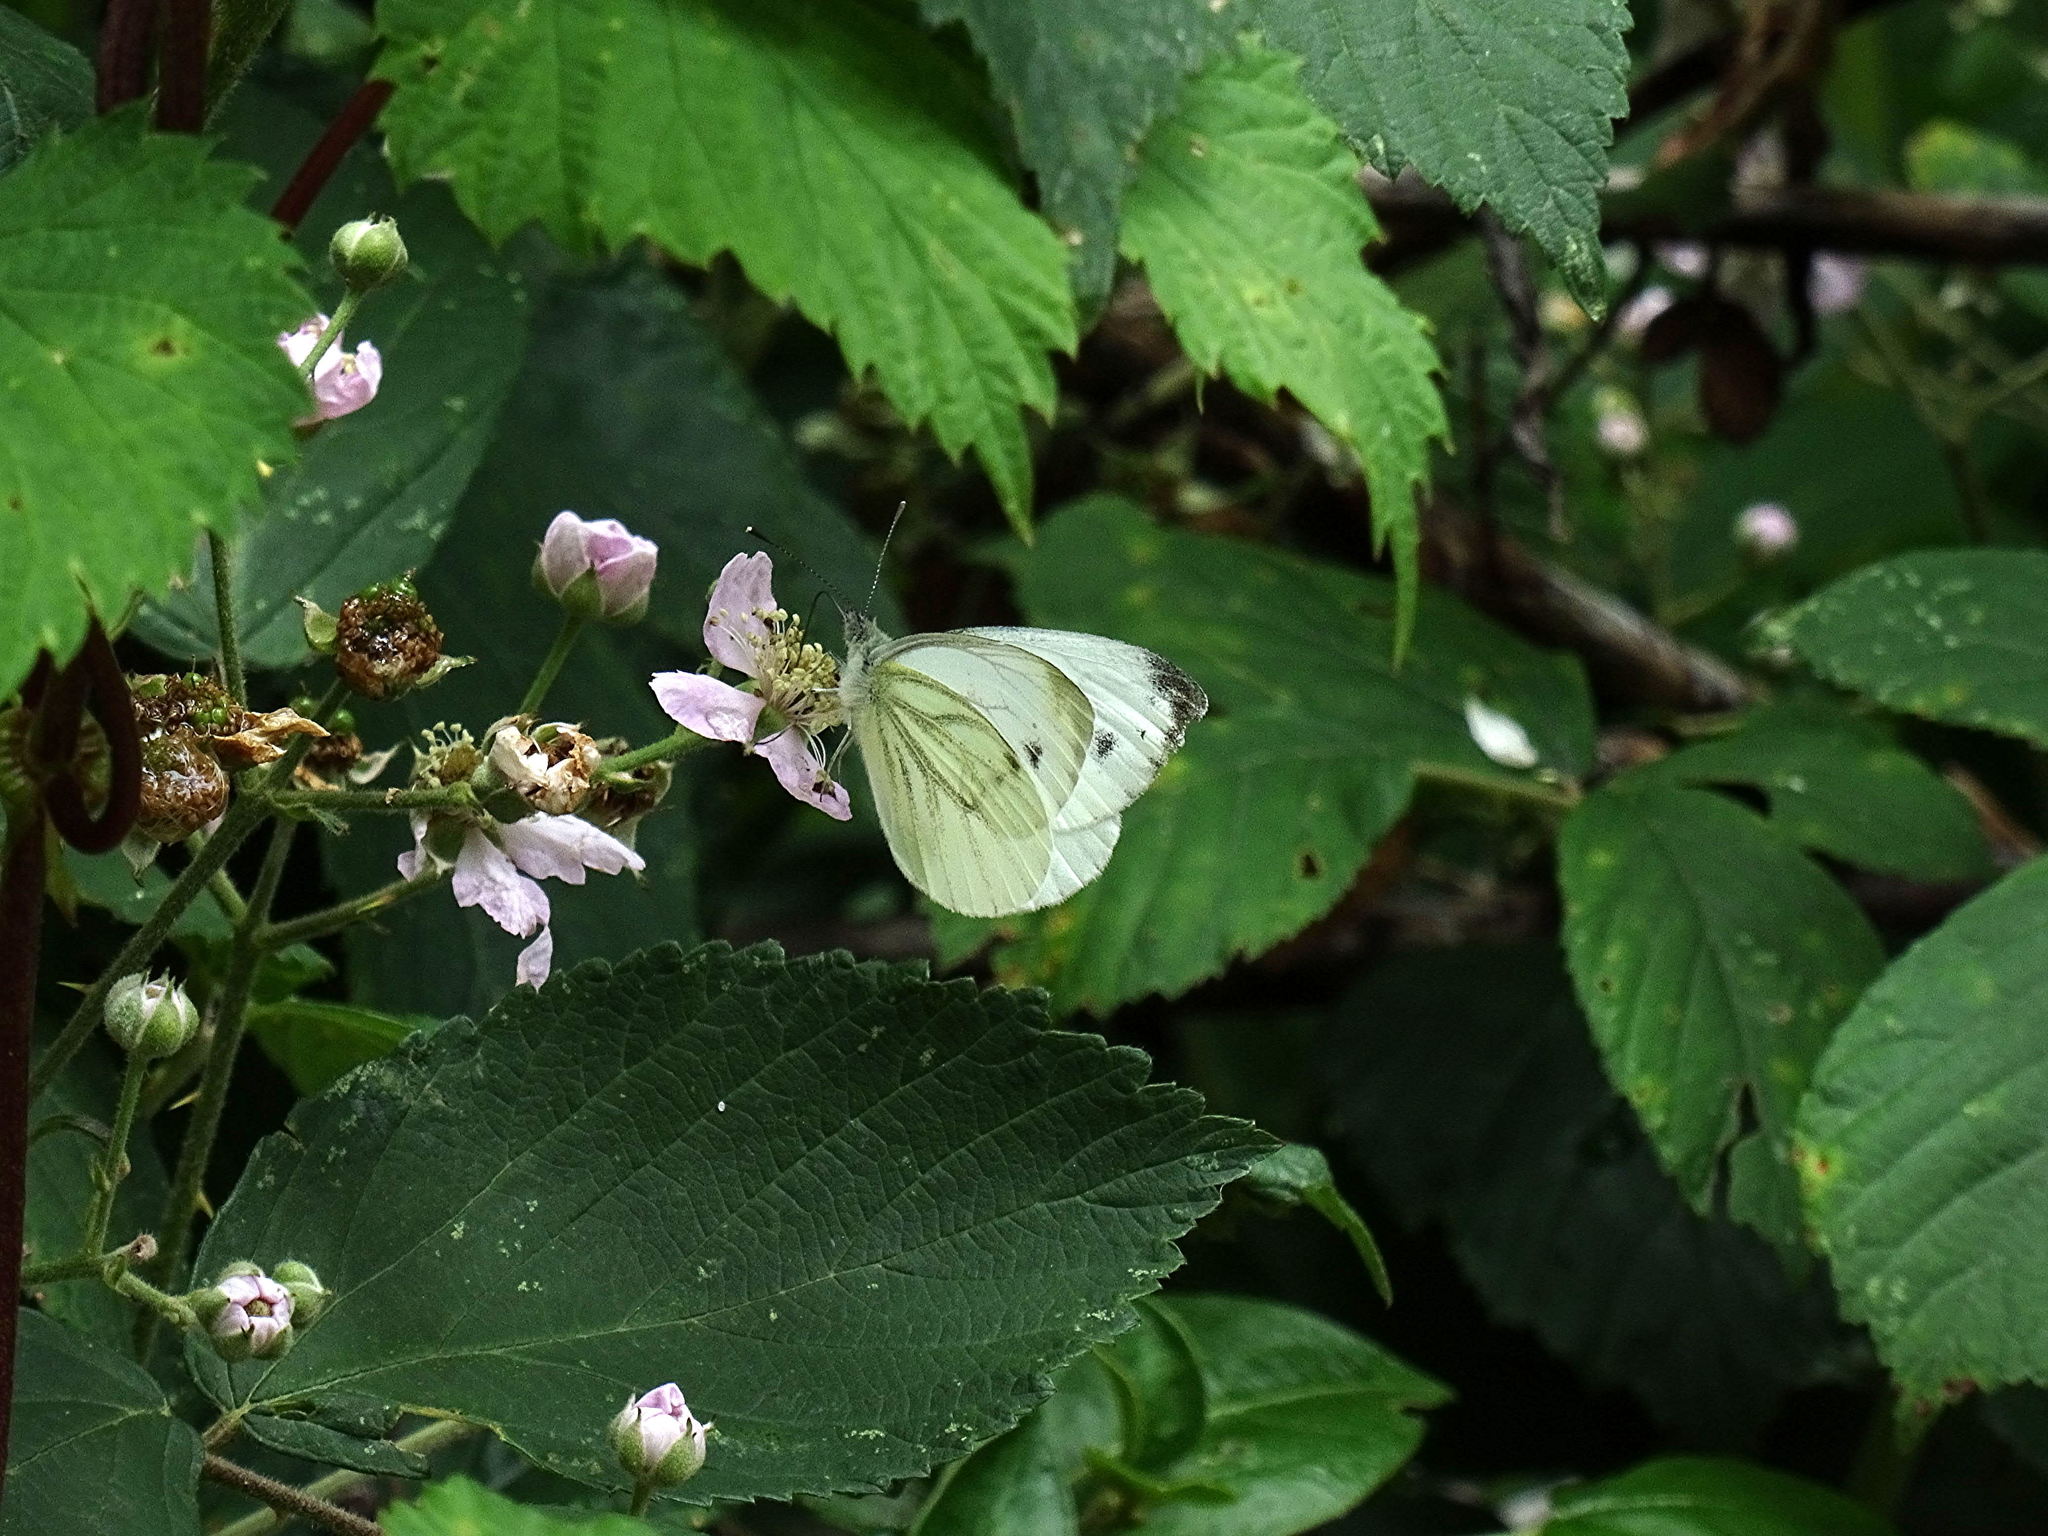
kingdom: Animalia
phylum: Arthropoda
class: Insecta
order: Lepidoptera
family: Pieridae
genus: Pieris
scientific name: Pieris napi
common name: Green-veined white
